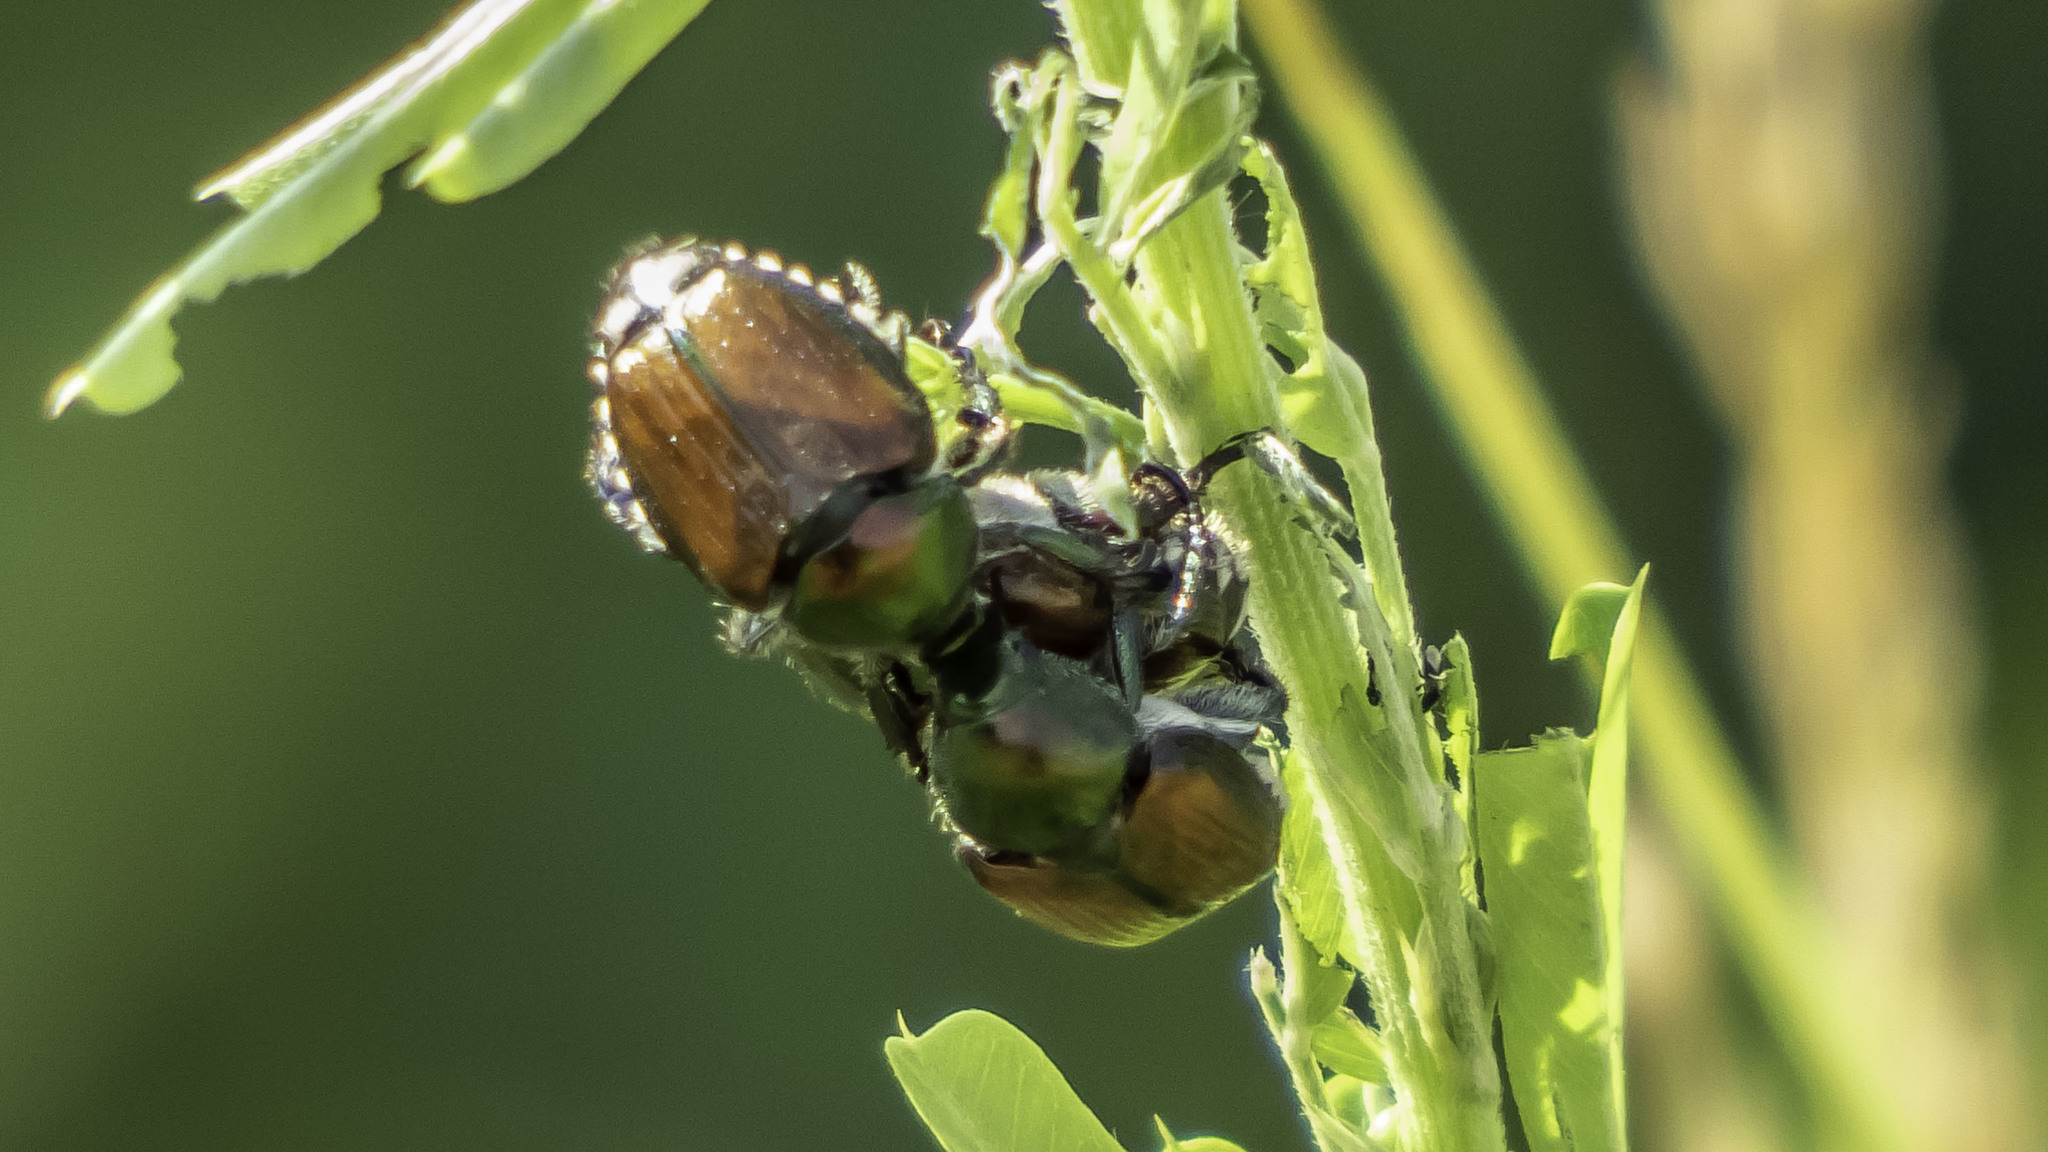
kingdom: Animalia
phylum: Arthropoda
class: Insecta
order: Coleoptera
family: Scarabaeidae
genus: Popillia
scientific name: Popillia japonica
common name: Japanese beetle
